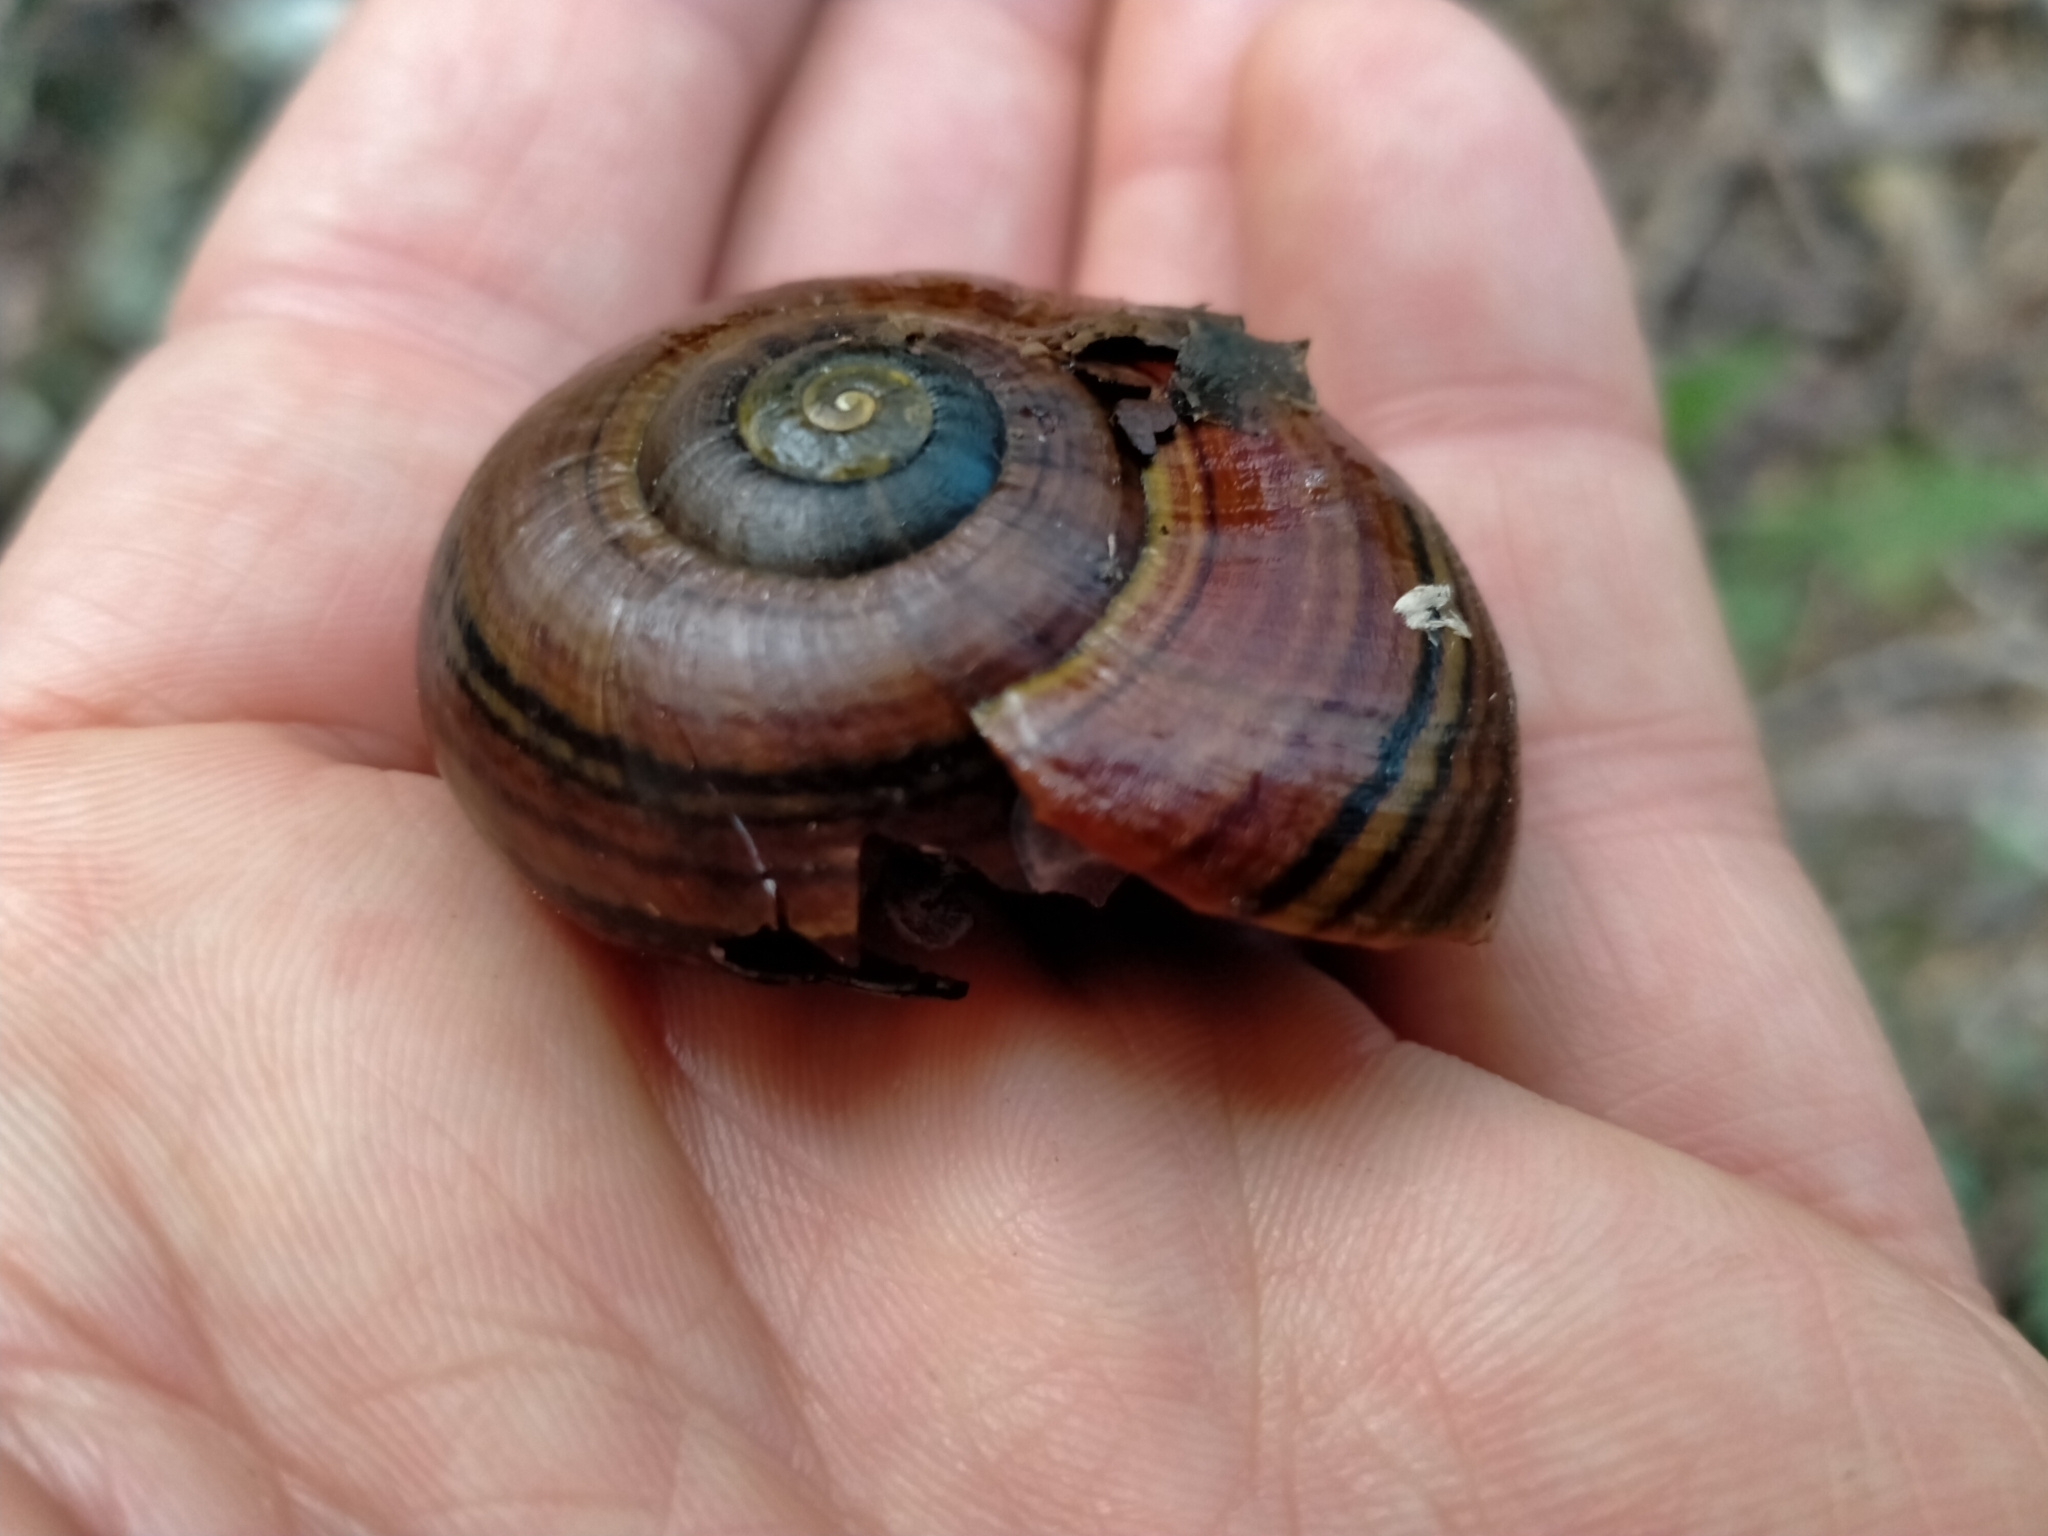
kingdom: Animalia
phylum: Mollusca
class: Gastropoda
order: Stylommatophora
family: Rhytididae
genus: Powelliphanta
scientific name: Powelliphanta hochstetteri
